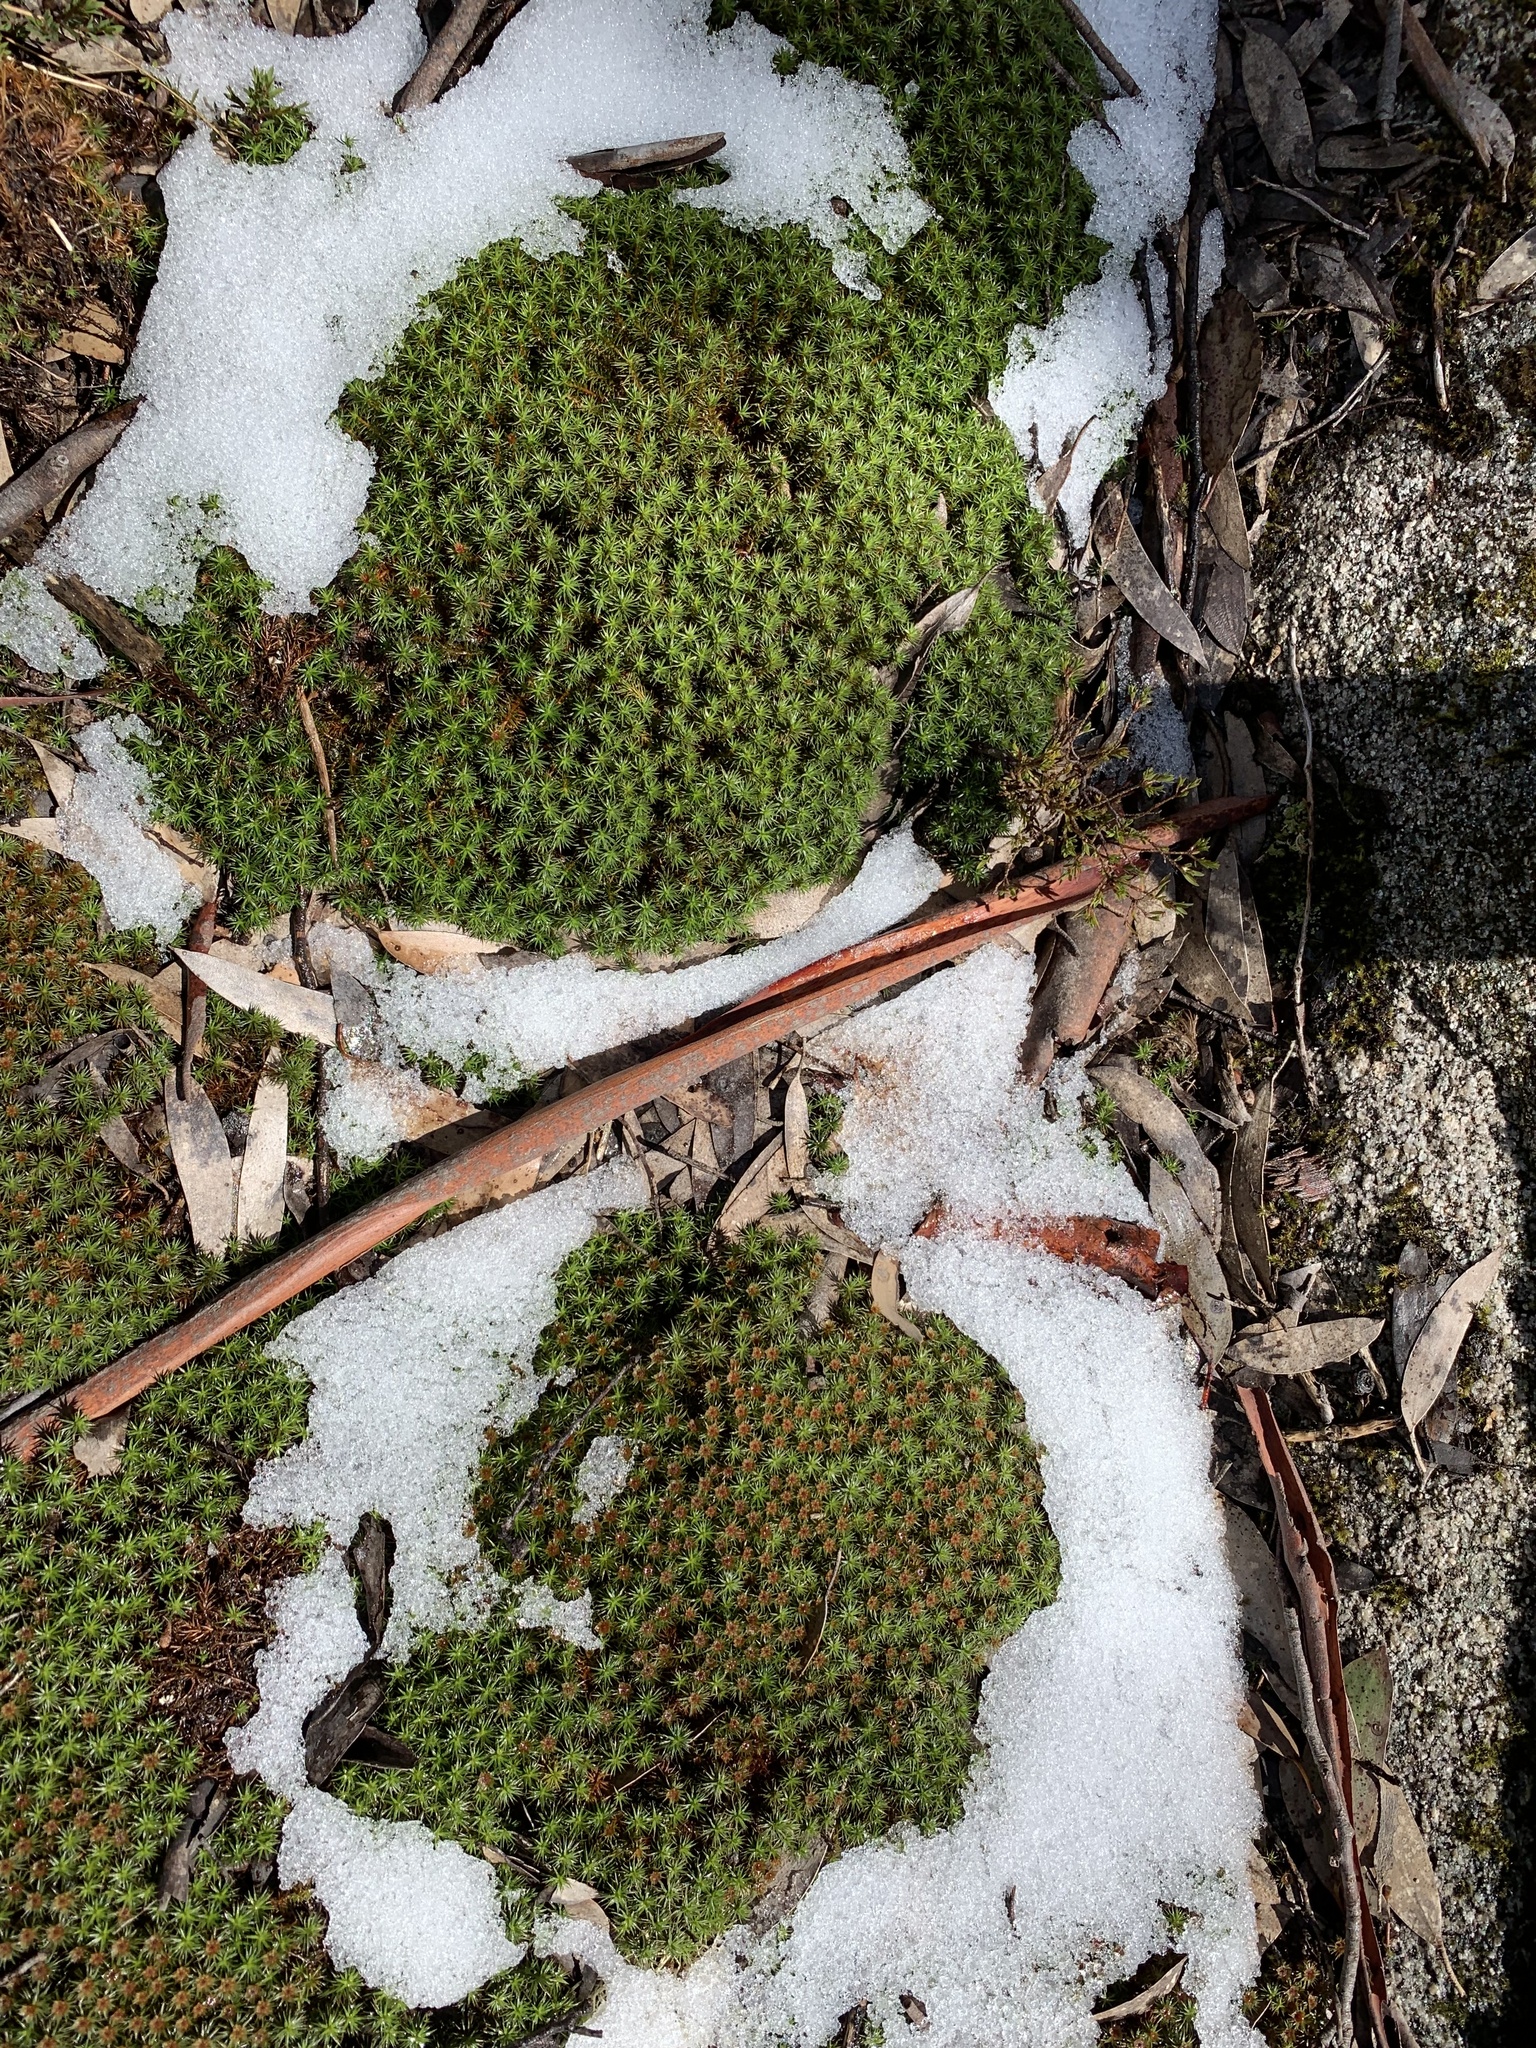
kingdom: Plantae
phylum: Bryophyta
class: Polytrichopsida
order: Polytrichales
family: Polytrichaceae
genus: Polytrichum
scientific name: Polytrichum juniperinum
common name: Juniper haircap moss
